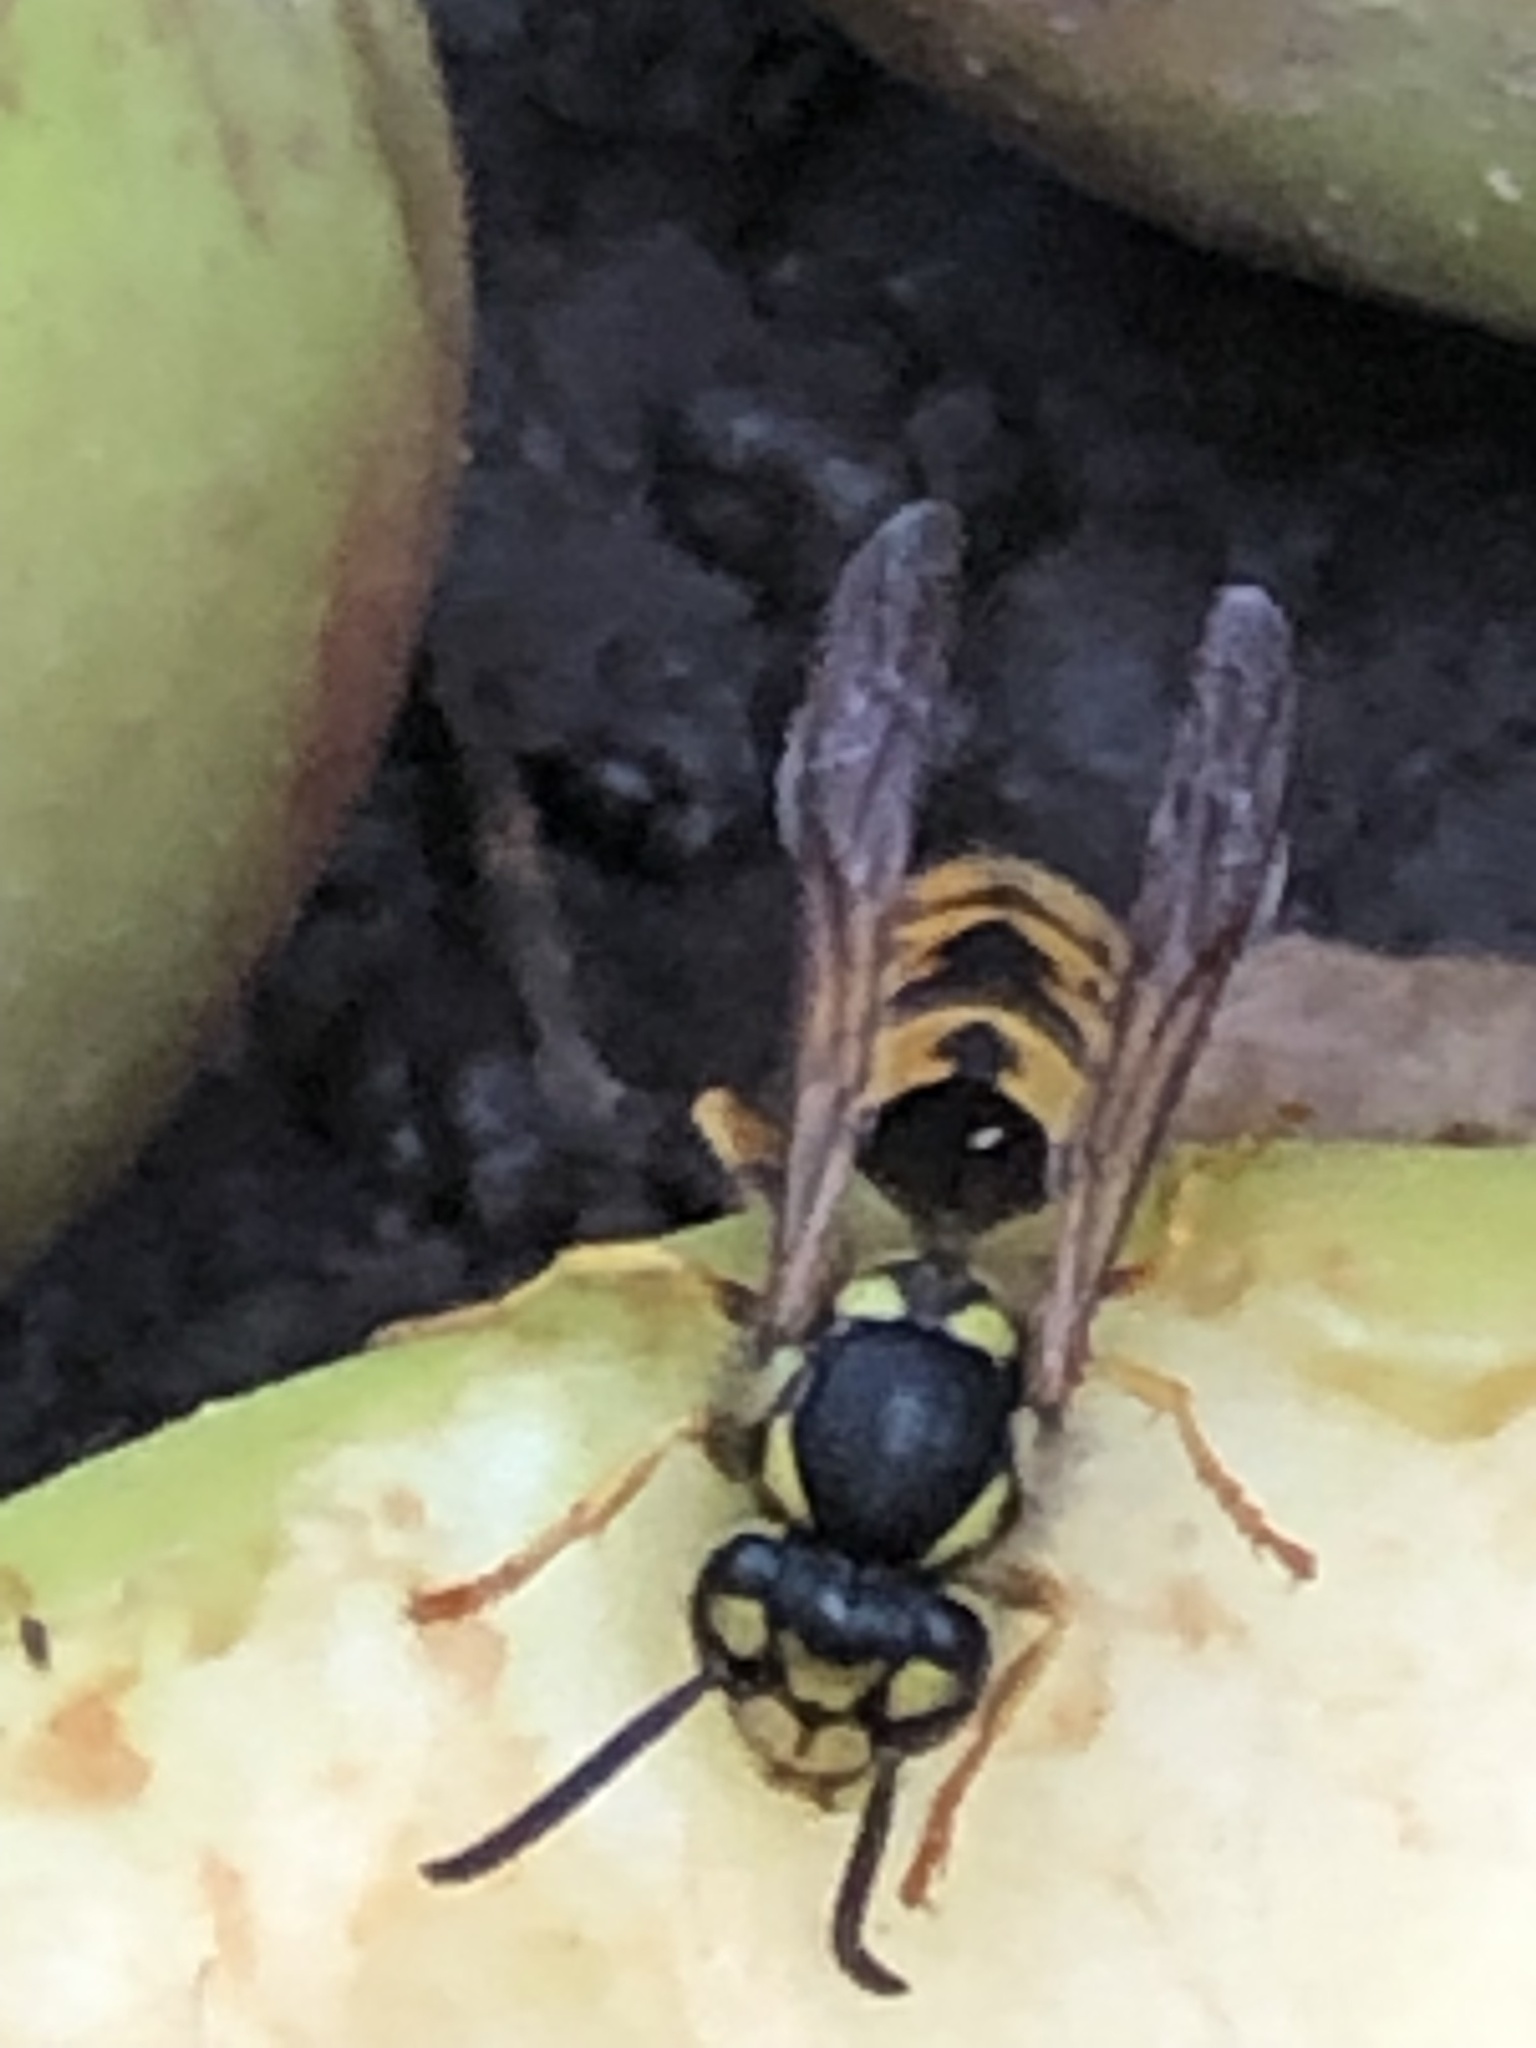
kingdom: Animalia
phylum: Arthropoda
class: Insecta
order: Hymenoptera
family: Vespidae
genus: Vespula
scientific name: Vespula germanica
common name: German wasp
